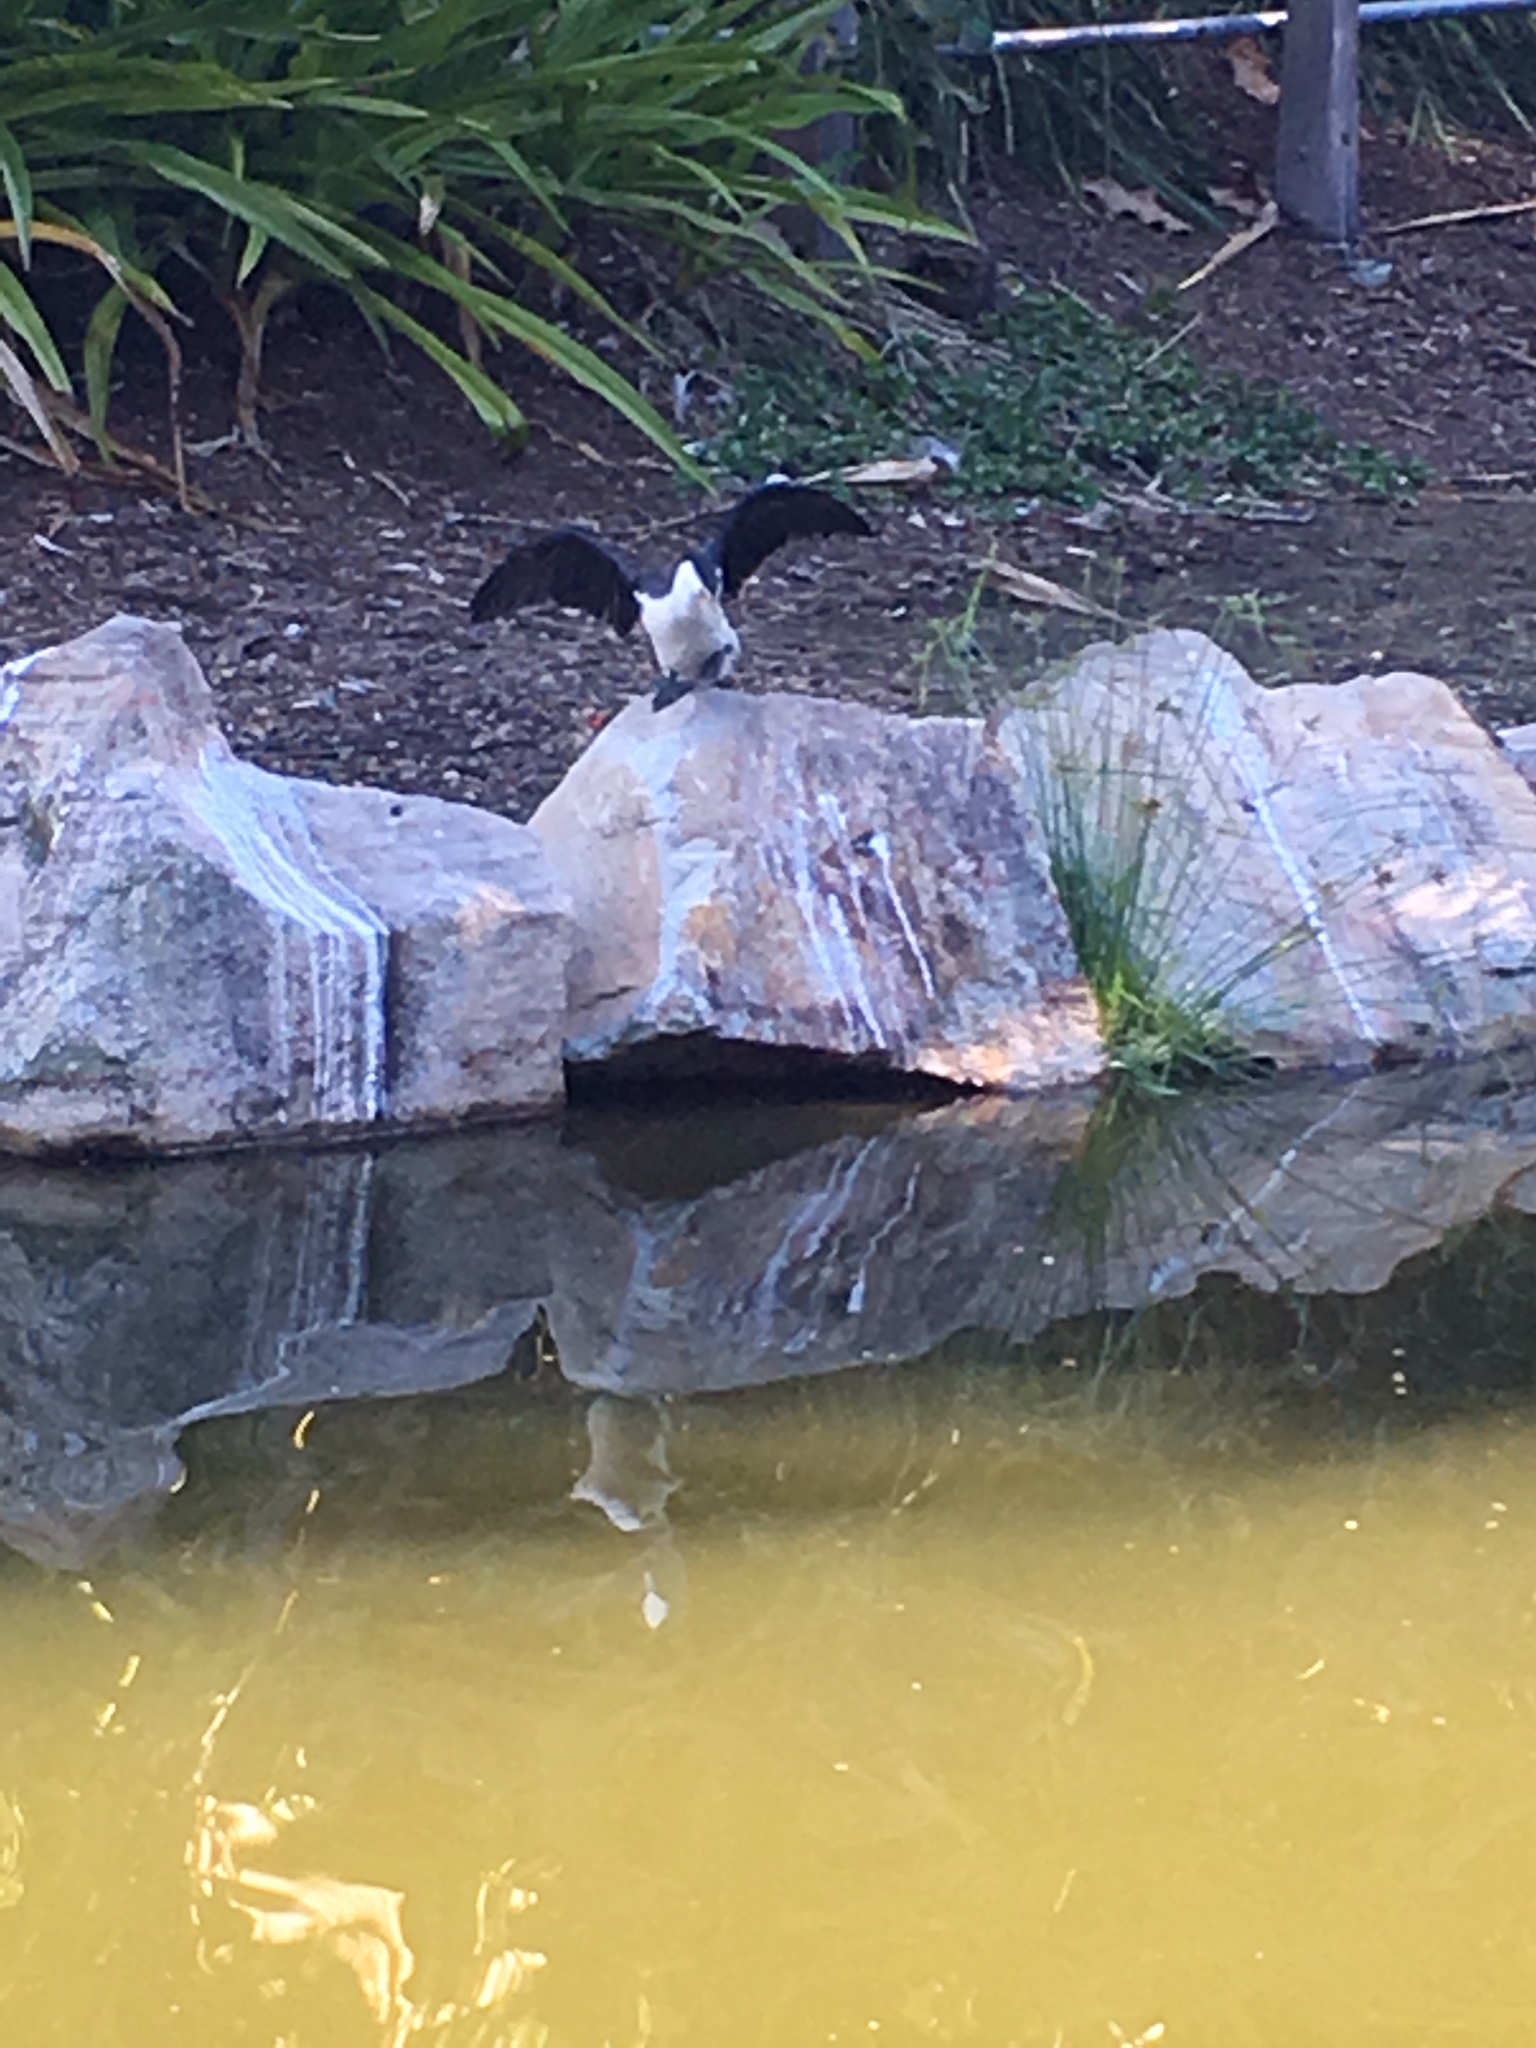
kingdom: Animalia
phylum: Chordata
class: Aves
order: Suliformes
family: Phalacrocoracidae
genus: Microcarbo
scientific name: Microcarbo melanoleucos
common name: Little pied cormorant
